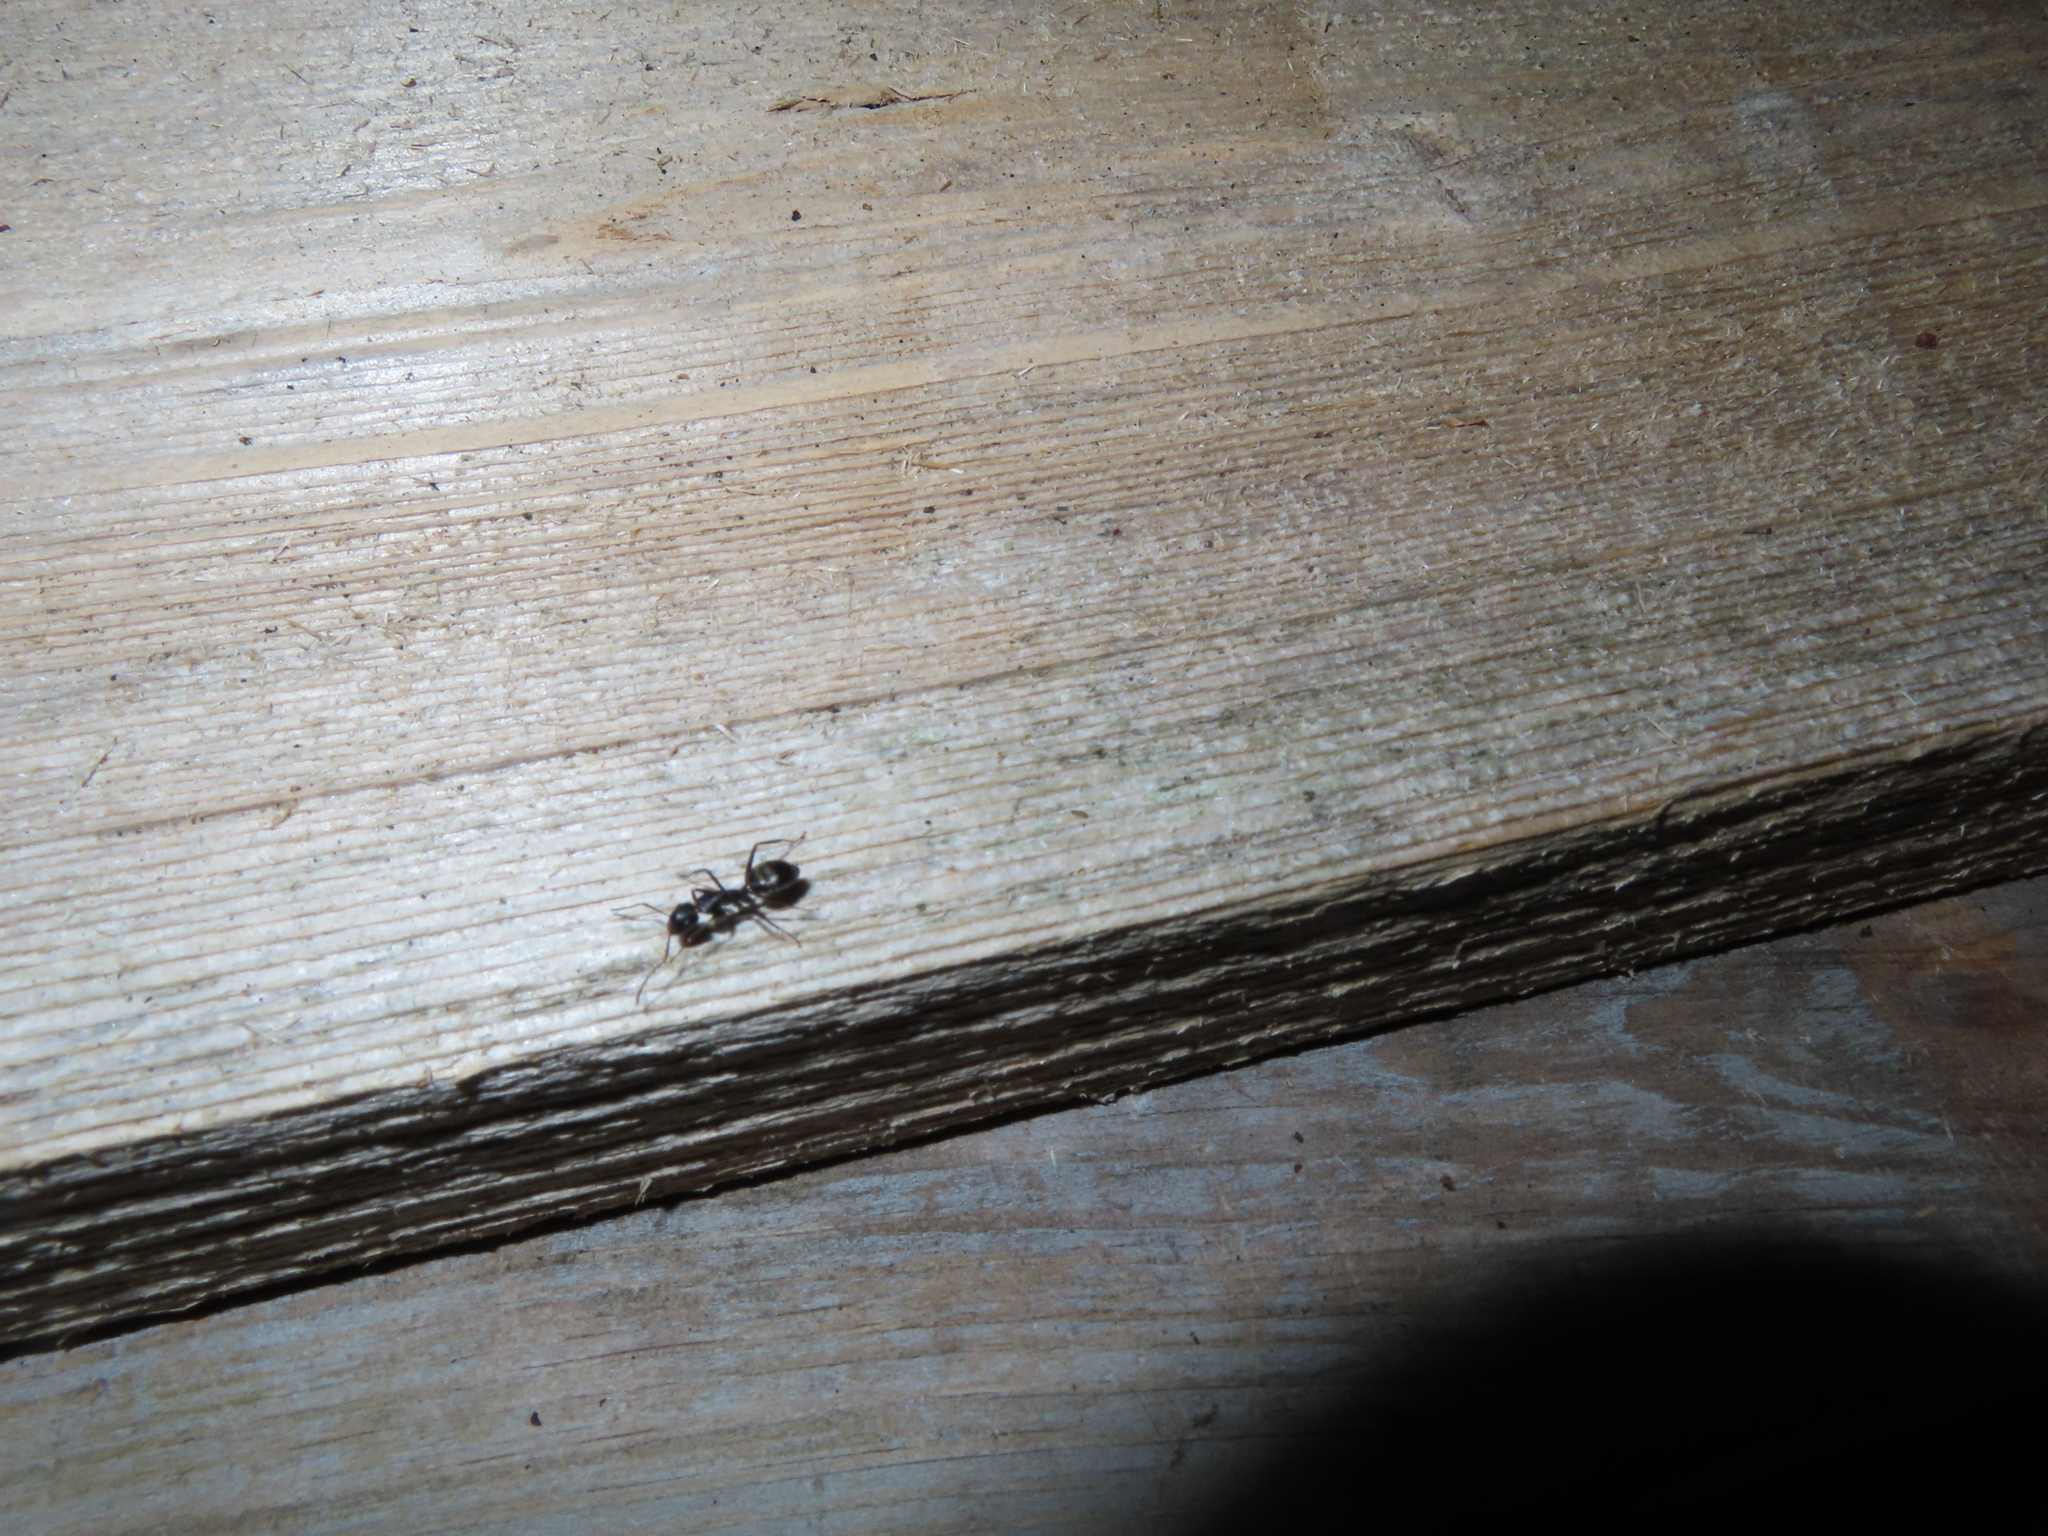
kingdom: Animalia
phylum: Arthropoda
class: Insecta
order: Hymenoptera
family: Formicidae
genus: Camponotus
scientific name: Camponotus pennsylvanicus
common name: Black carpenter ant
